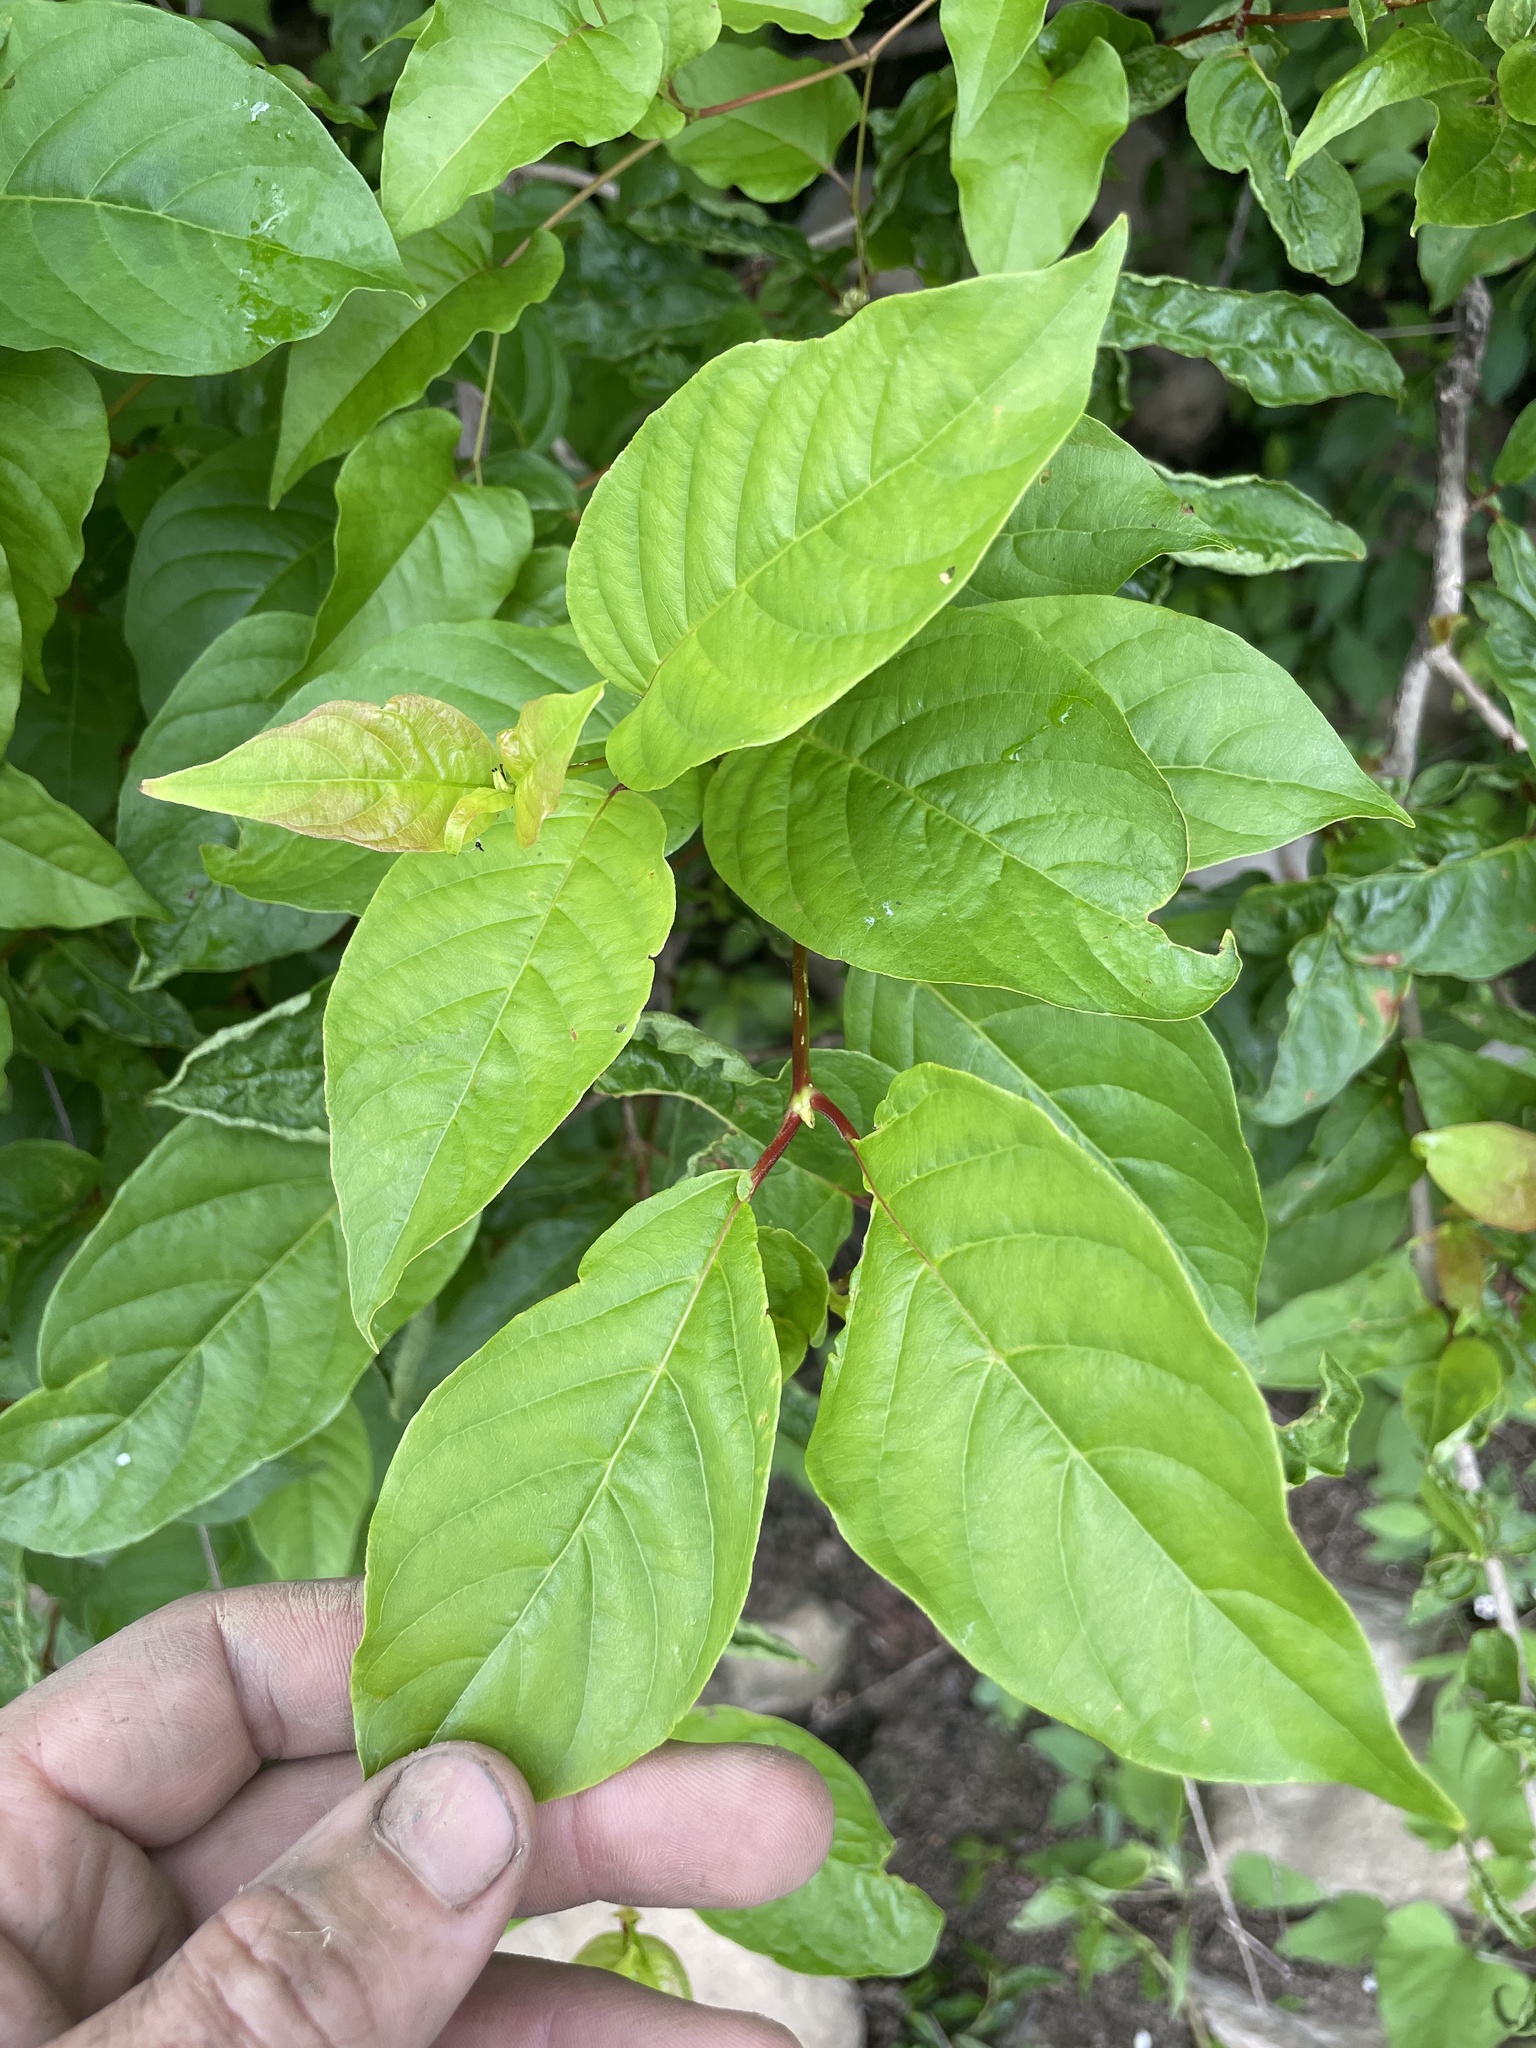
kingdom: Plantae
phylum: Tracheophyta
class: Magnoliopsida
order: Gentianales
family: Rubiaceae
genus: Cephalanthus
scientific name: Cephalanthus occidentalis
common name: Button-willow
